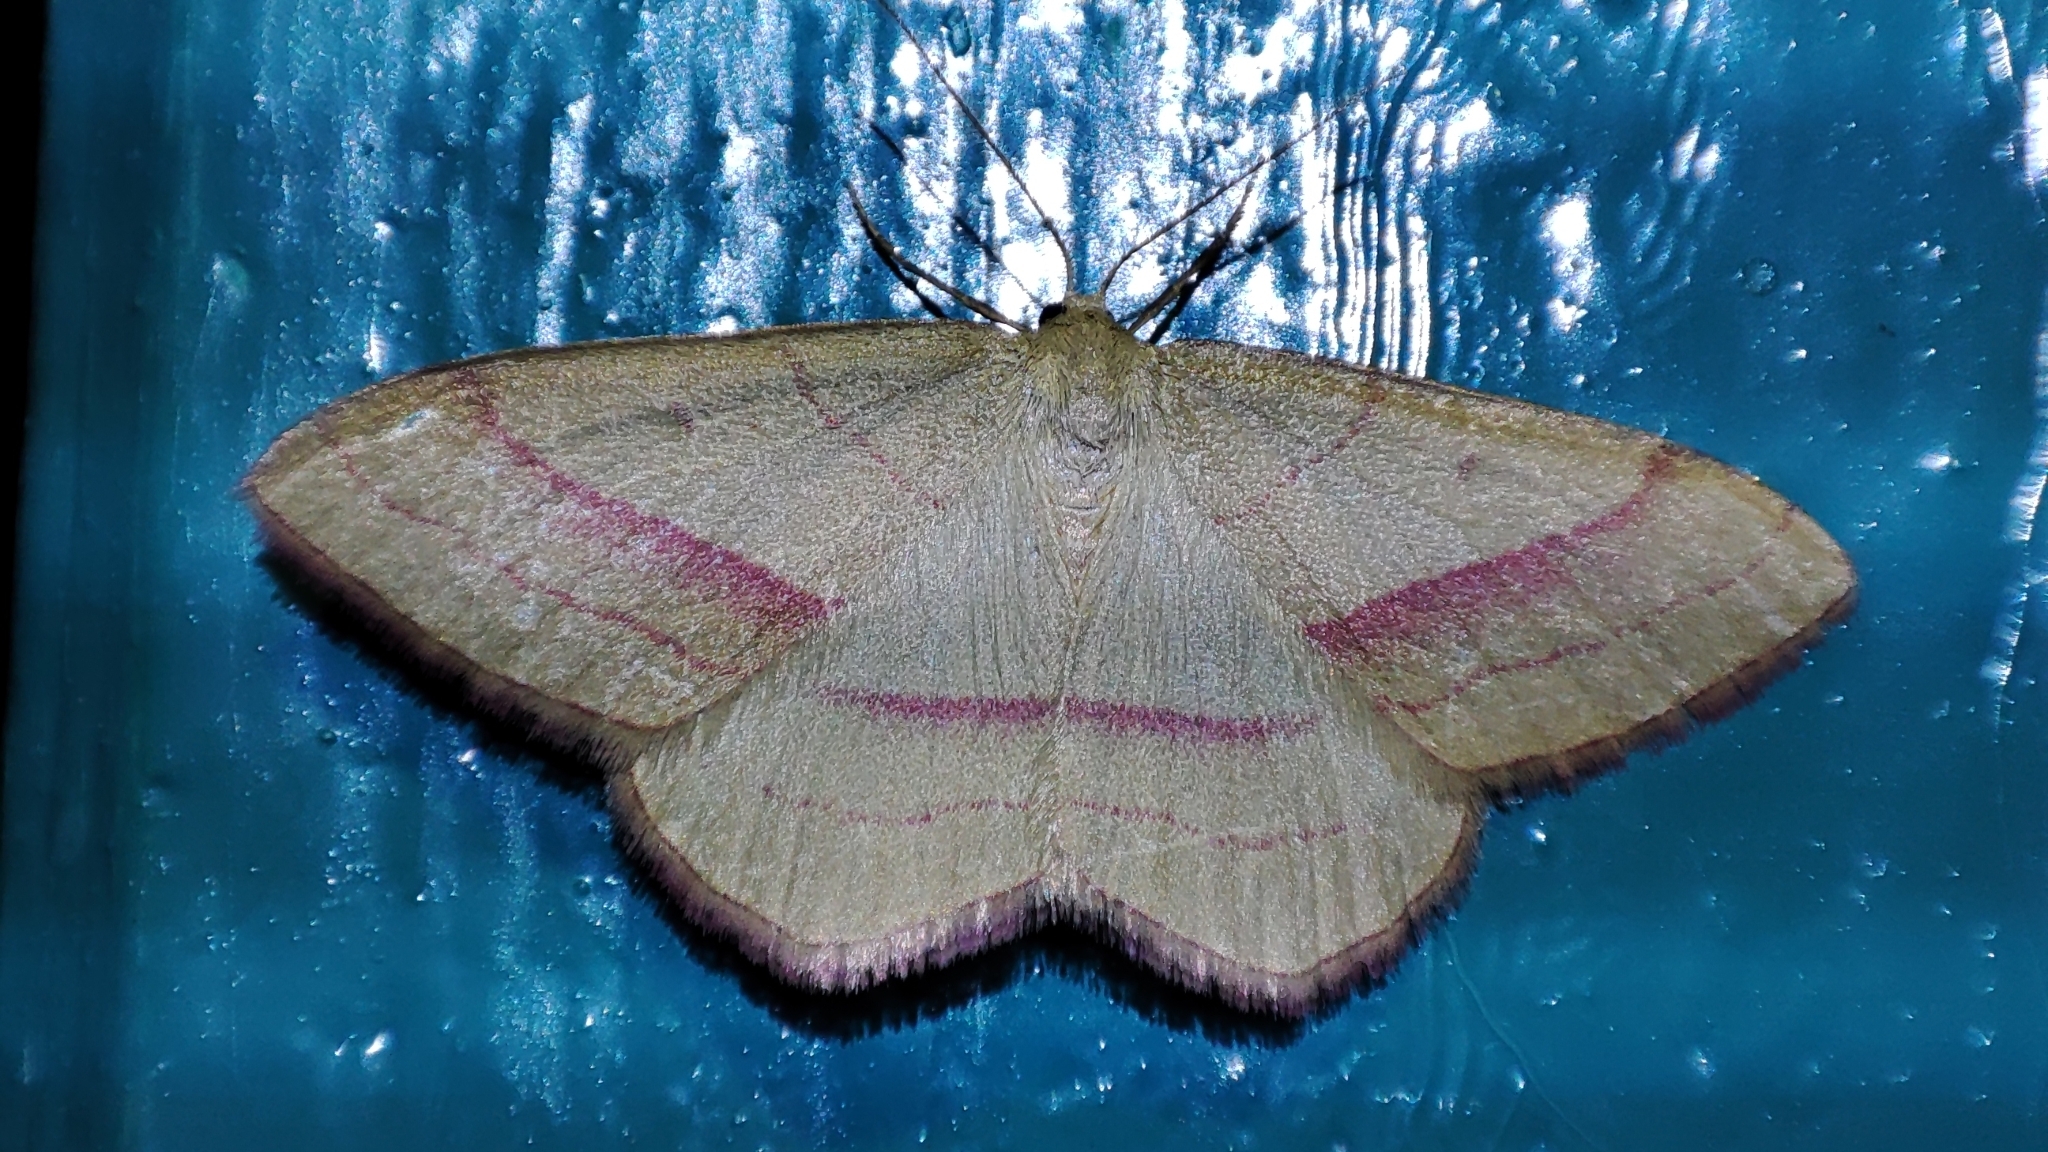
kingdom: Animalia
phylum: Arthropoda
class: Insecta
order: Lepidoptera
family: Geometridae
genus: Rhodostrophia
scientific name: Rhodostrophia vibicaria
